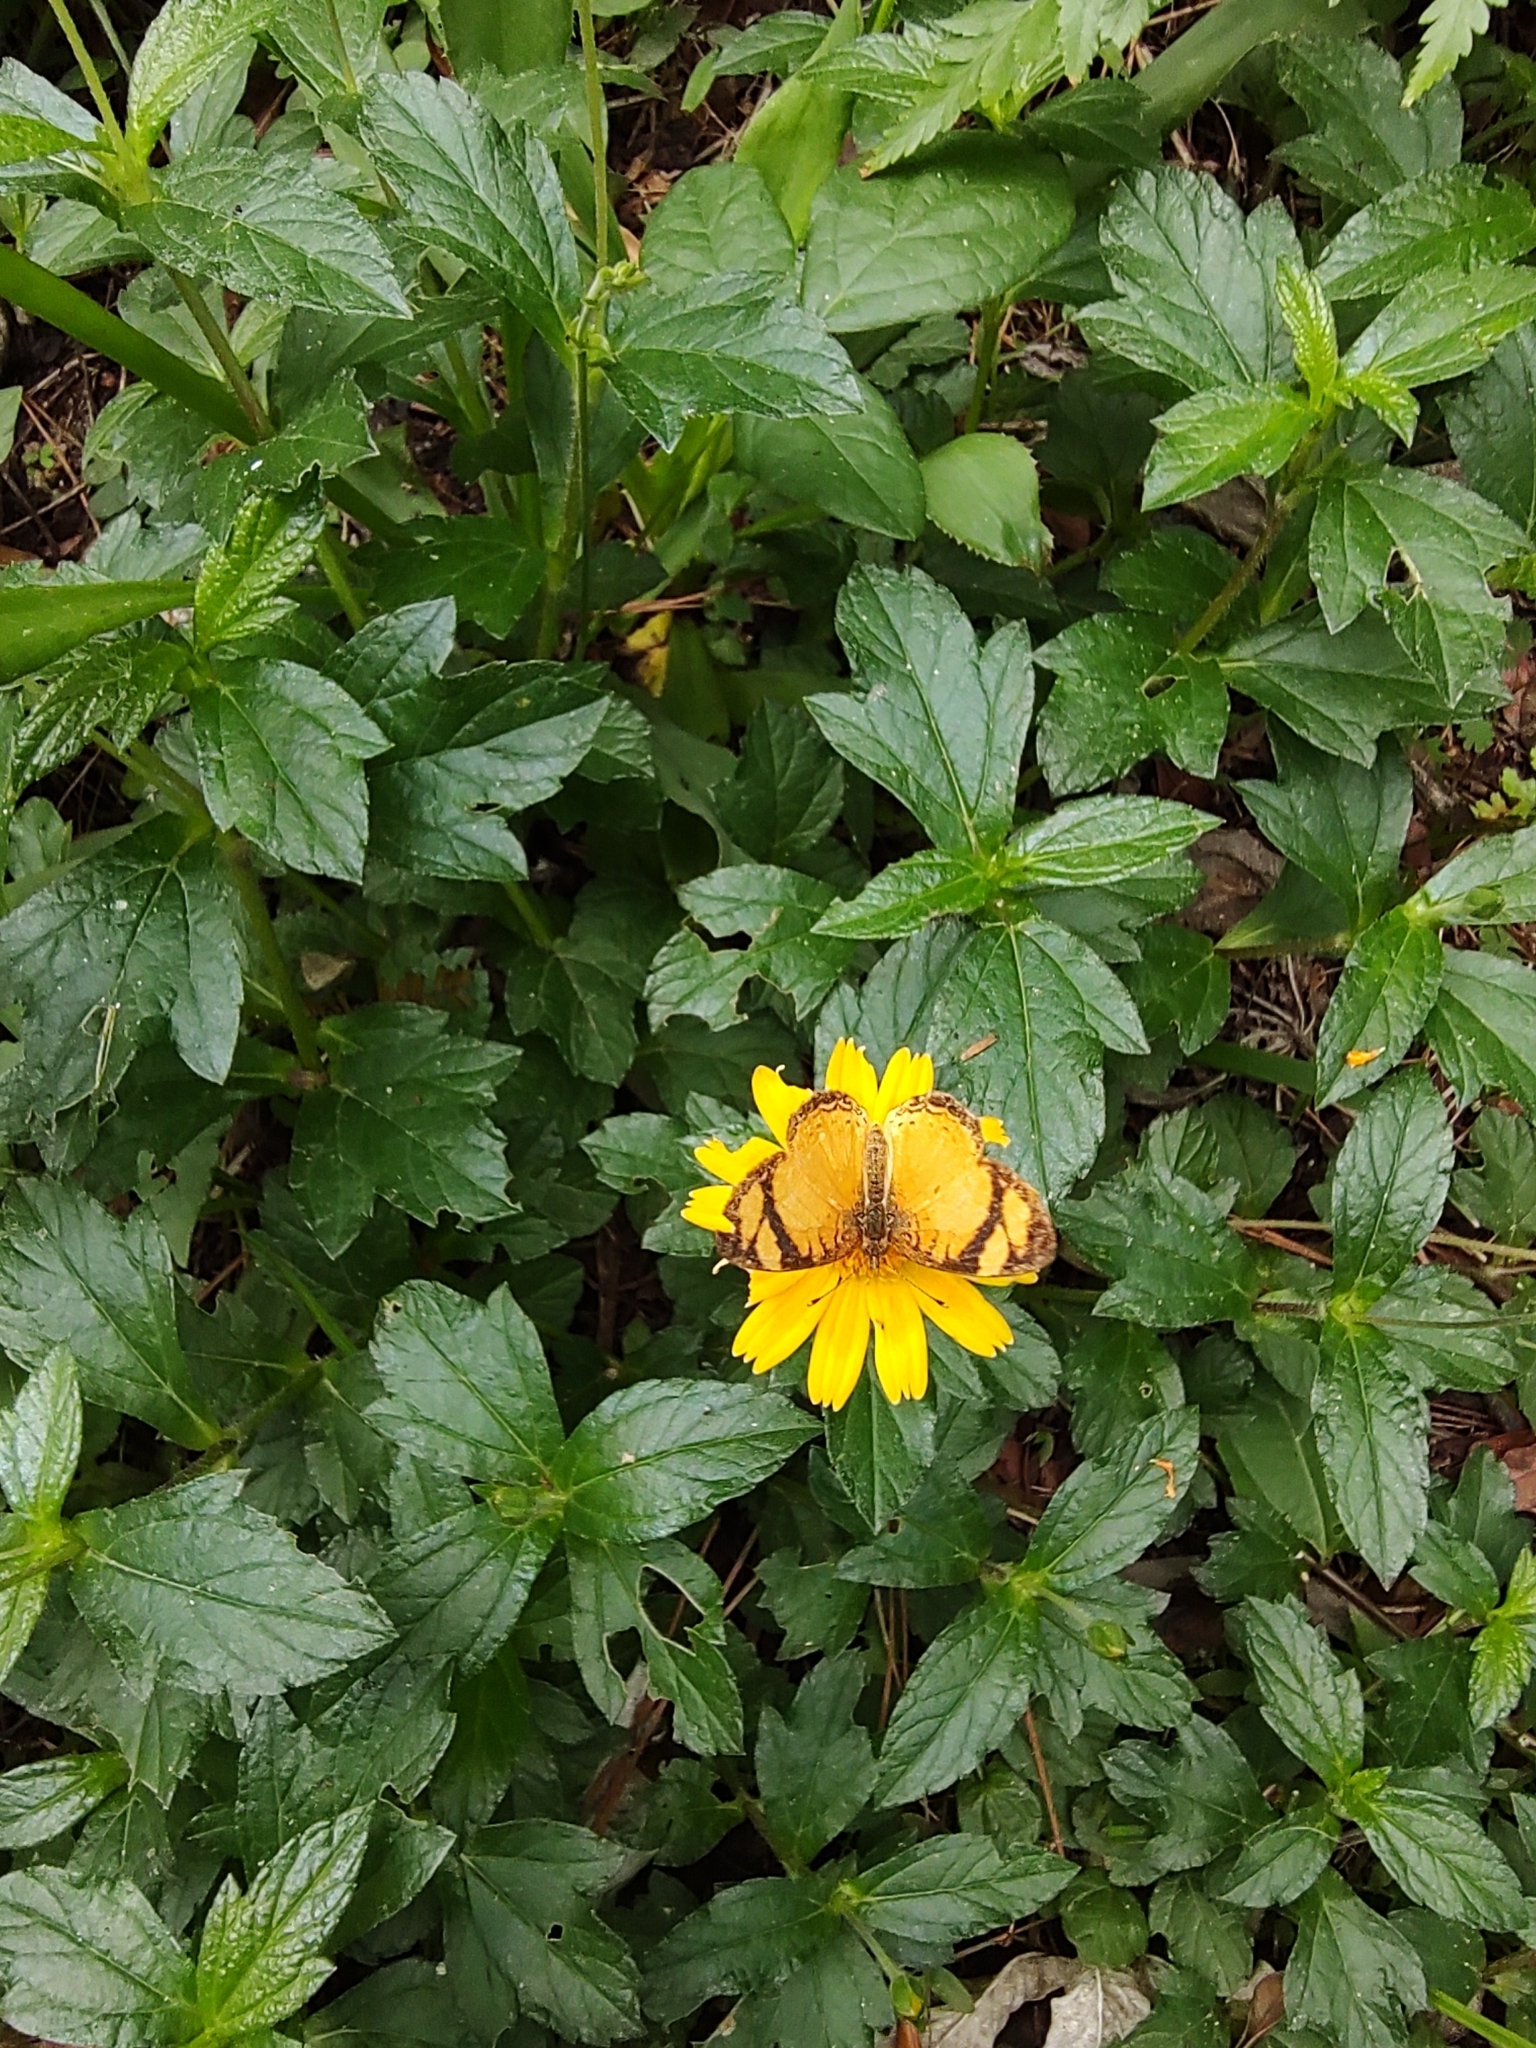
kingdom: Animalia
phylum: Arthropoda
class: Insecta
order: Lepidoptera
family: Nymphalidae
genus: Tegosa
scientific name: Tegosa claudina
